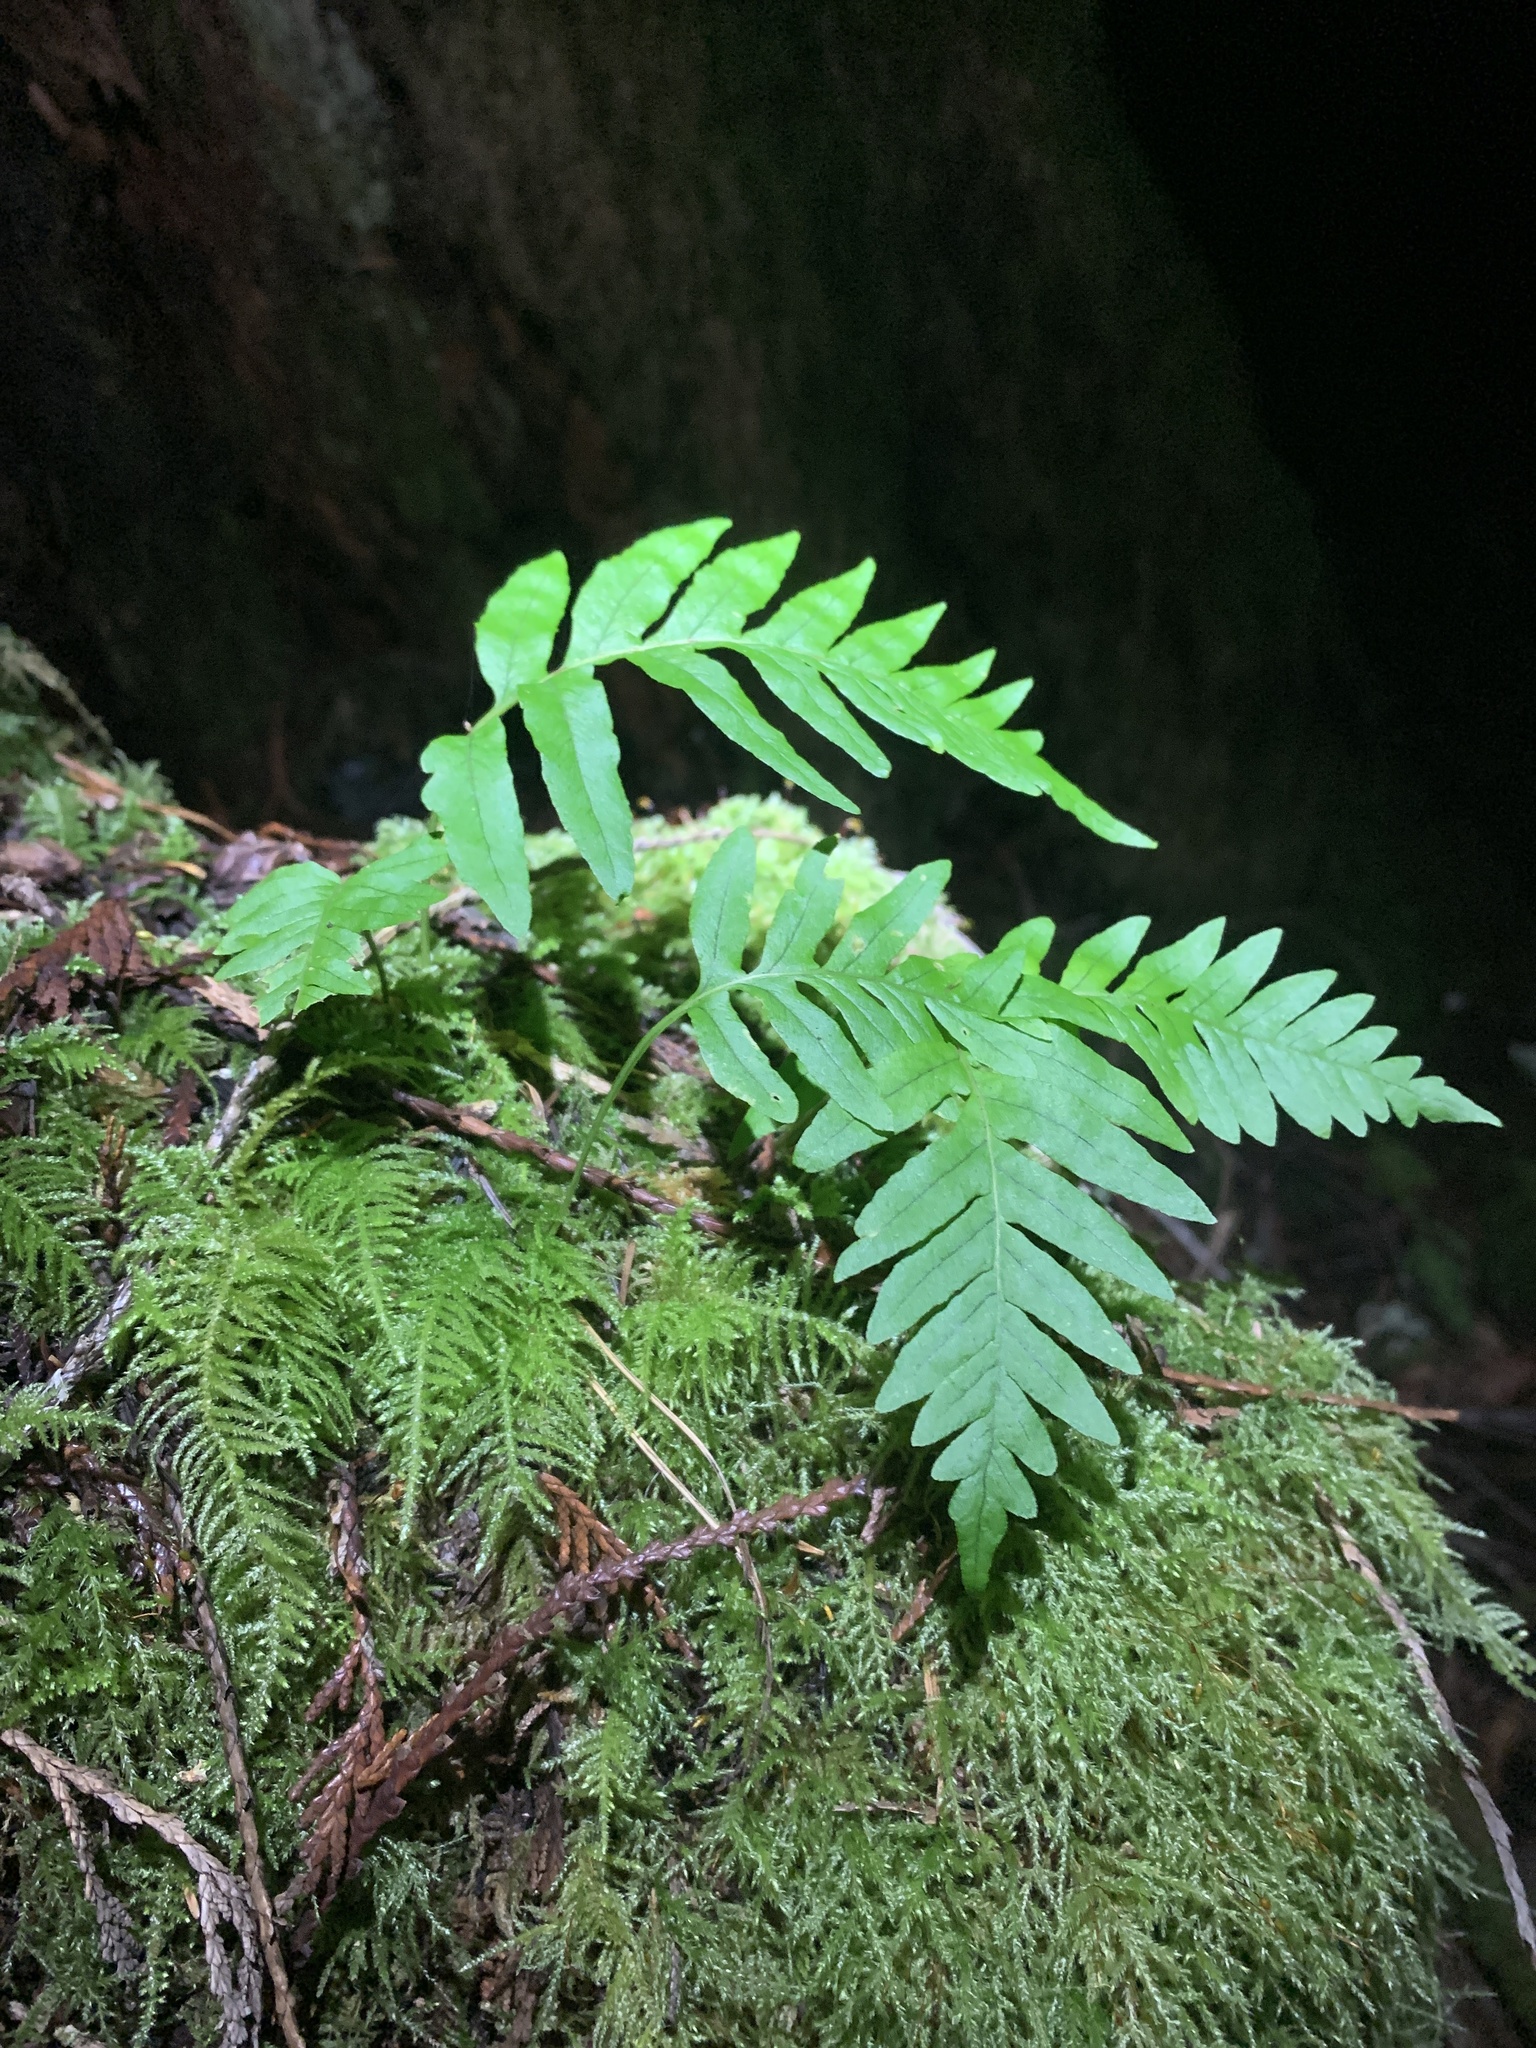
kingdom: Plantae
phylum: Tracheophyta
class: Polypodiopsida
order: Polypodiales
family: Polypodiaceae
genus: Polypodium
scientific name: Polypodium glycyrrhiza
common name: Licorice fern
